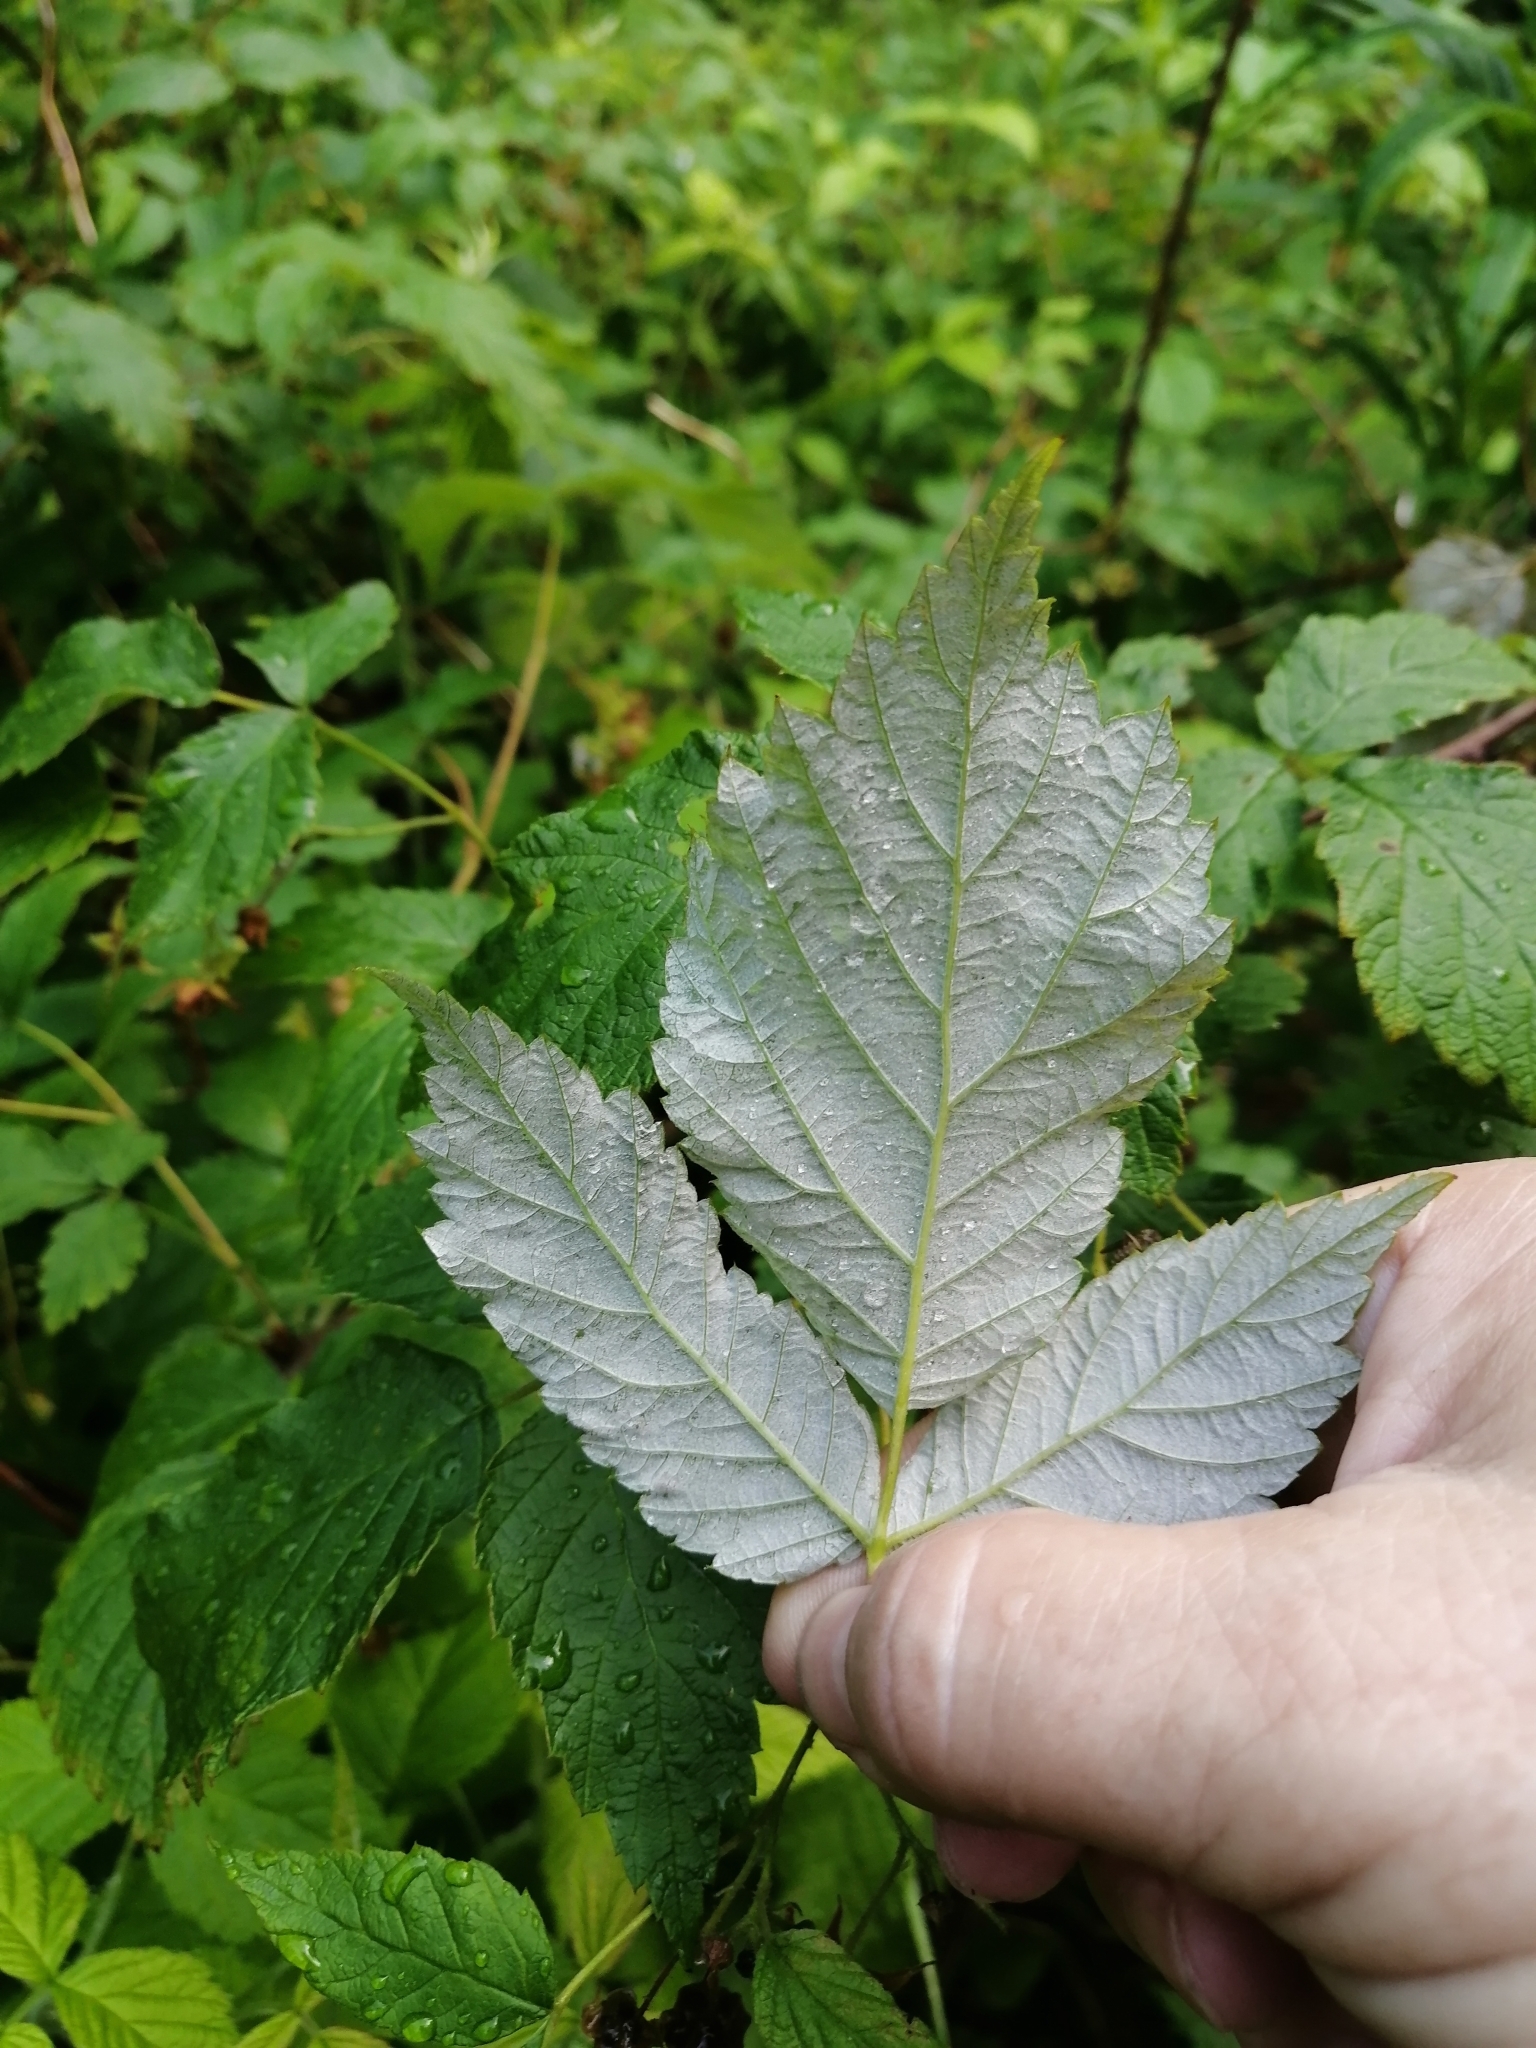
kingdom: Plantae
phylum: Tracheophyta
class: Magnoliopsida
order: Rosales
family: Rosaceae
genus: Rubus
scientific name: Rubus idaeus
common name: Raspberry
